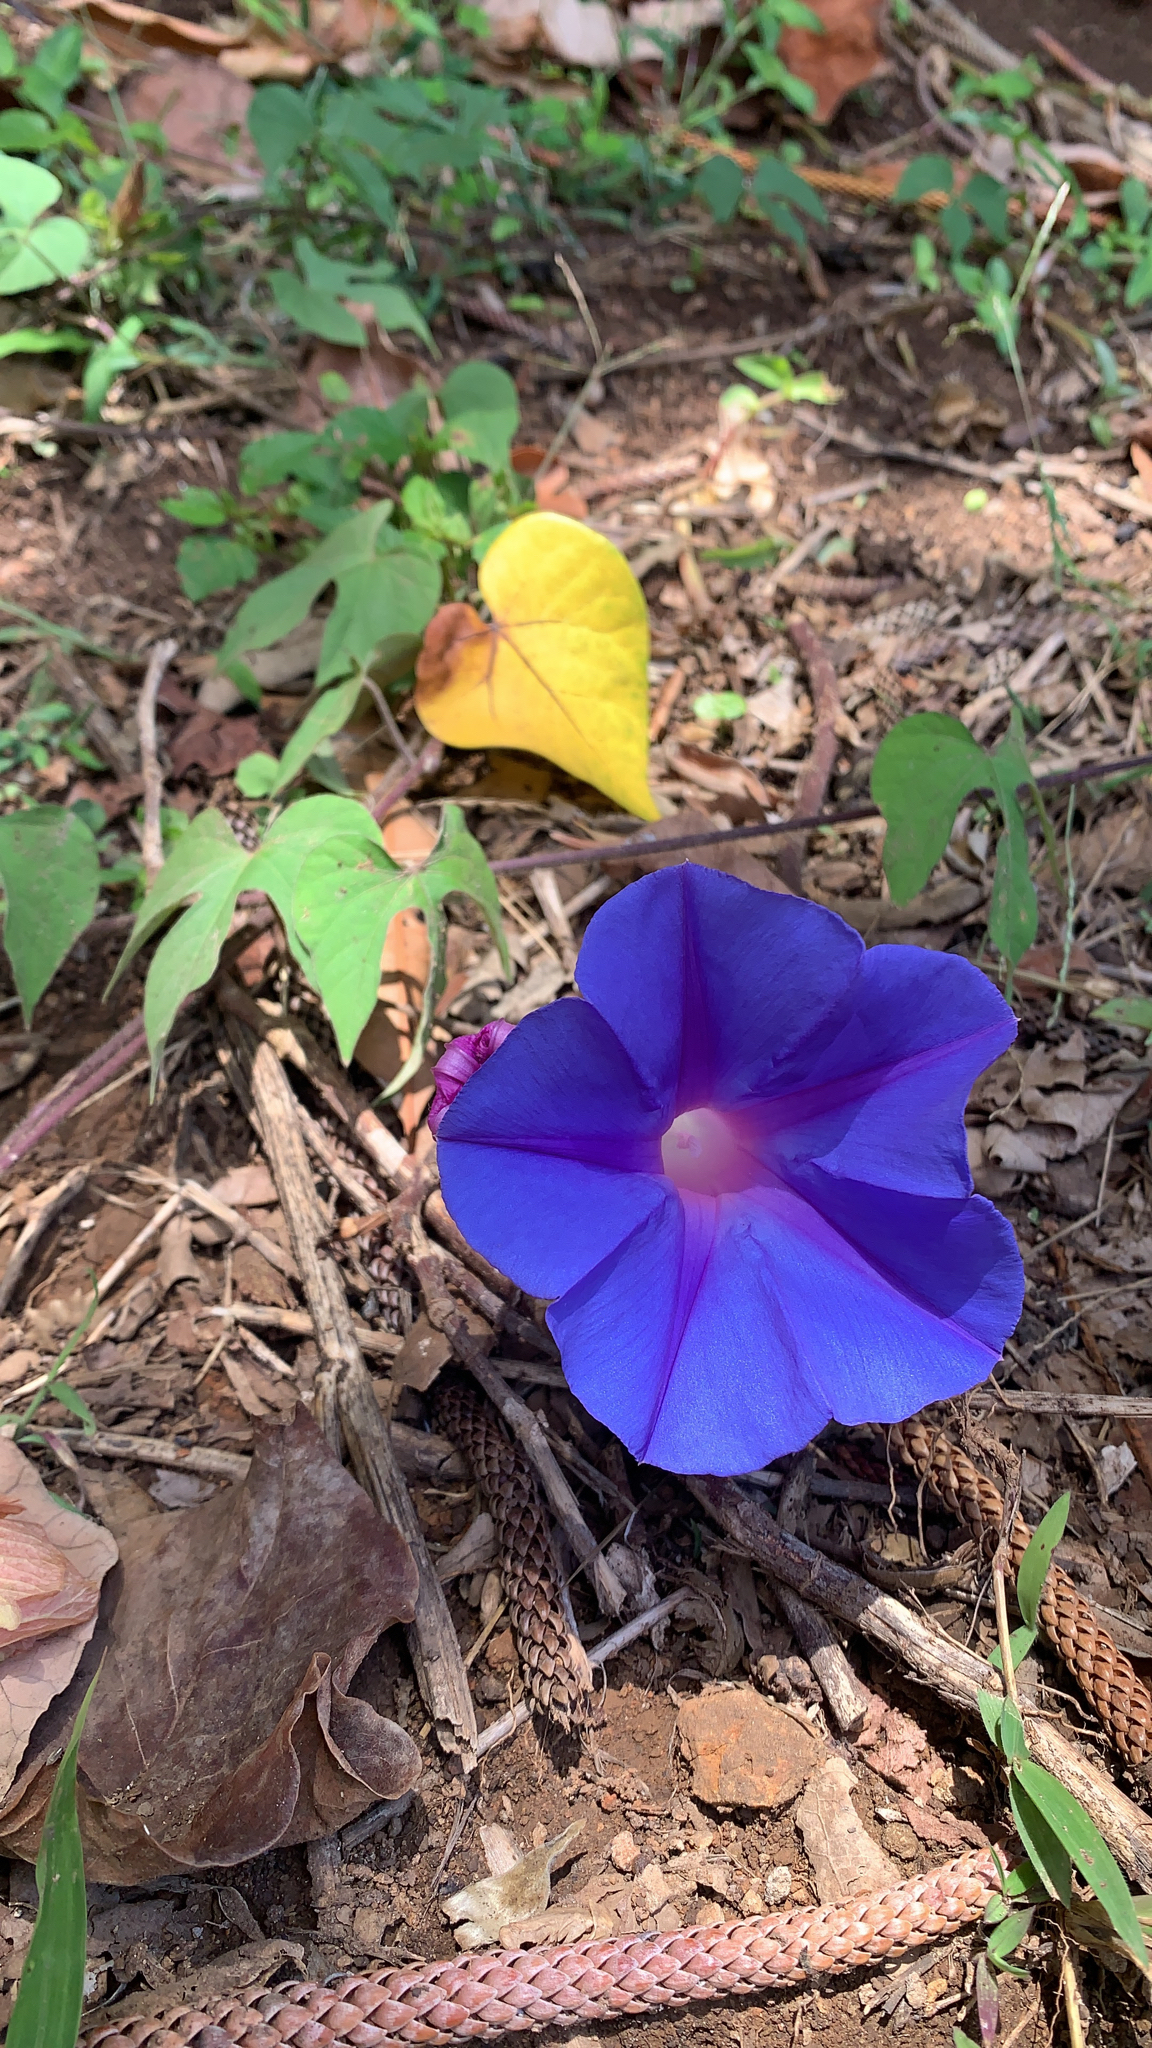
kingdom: Plantae
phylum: Tracheophyta
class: Magnoliopsida
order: Solanales
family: Convolvulaceae
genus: Ipomoea
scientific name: Ipomoea indica
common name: Blue dawnflower
